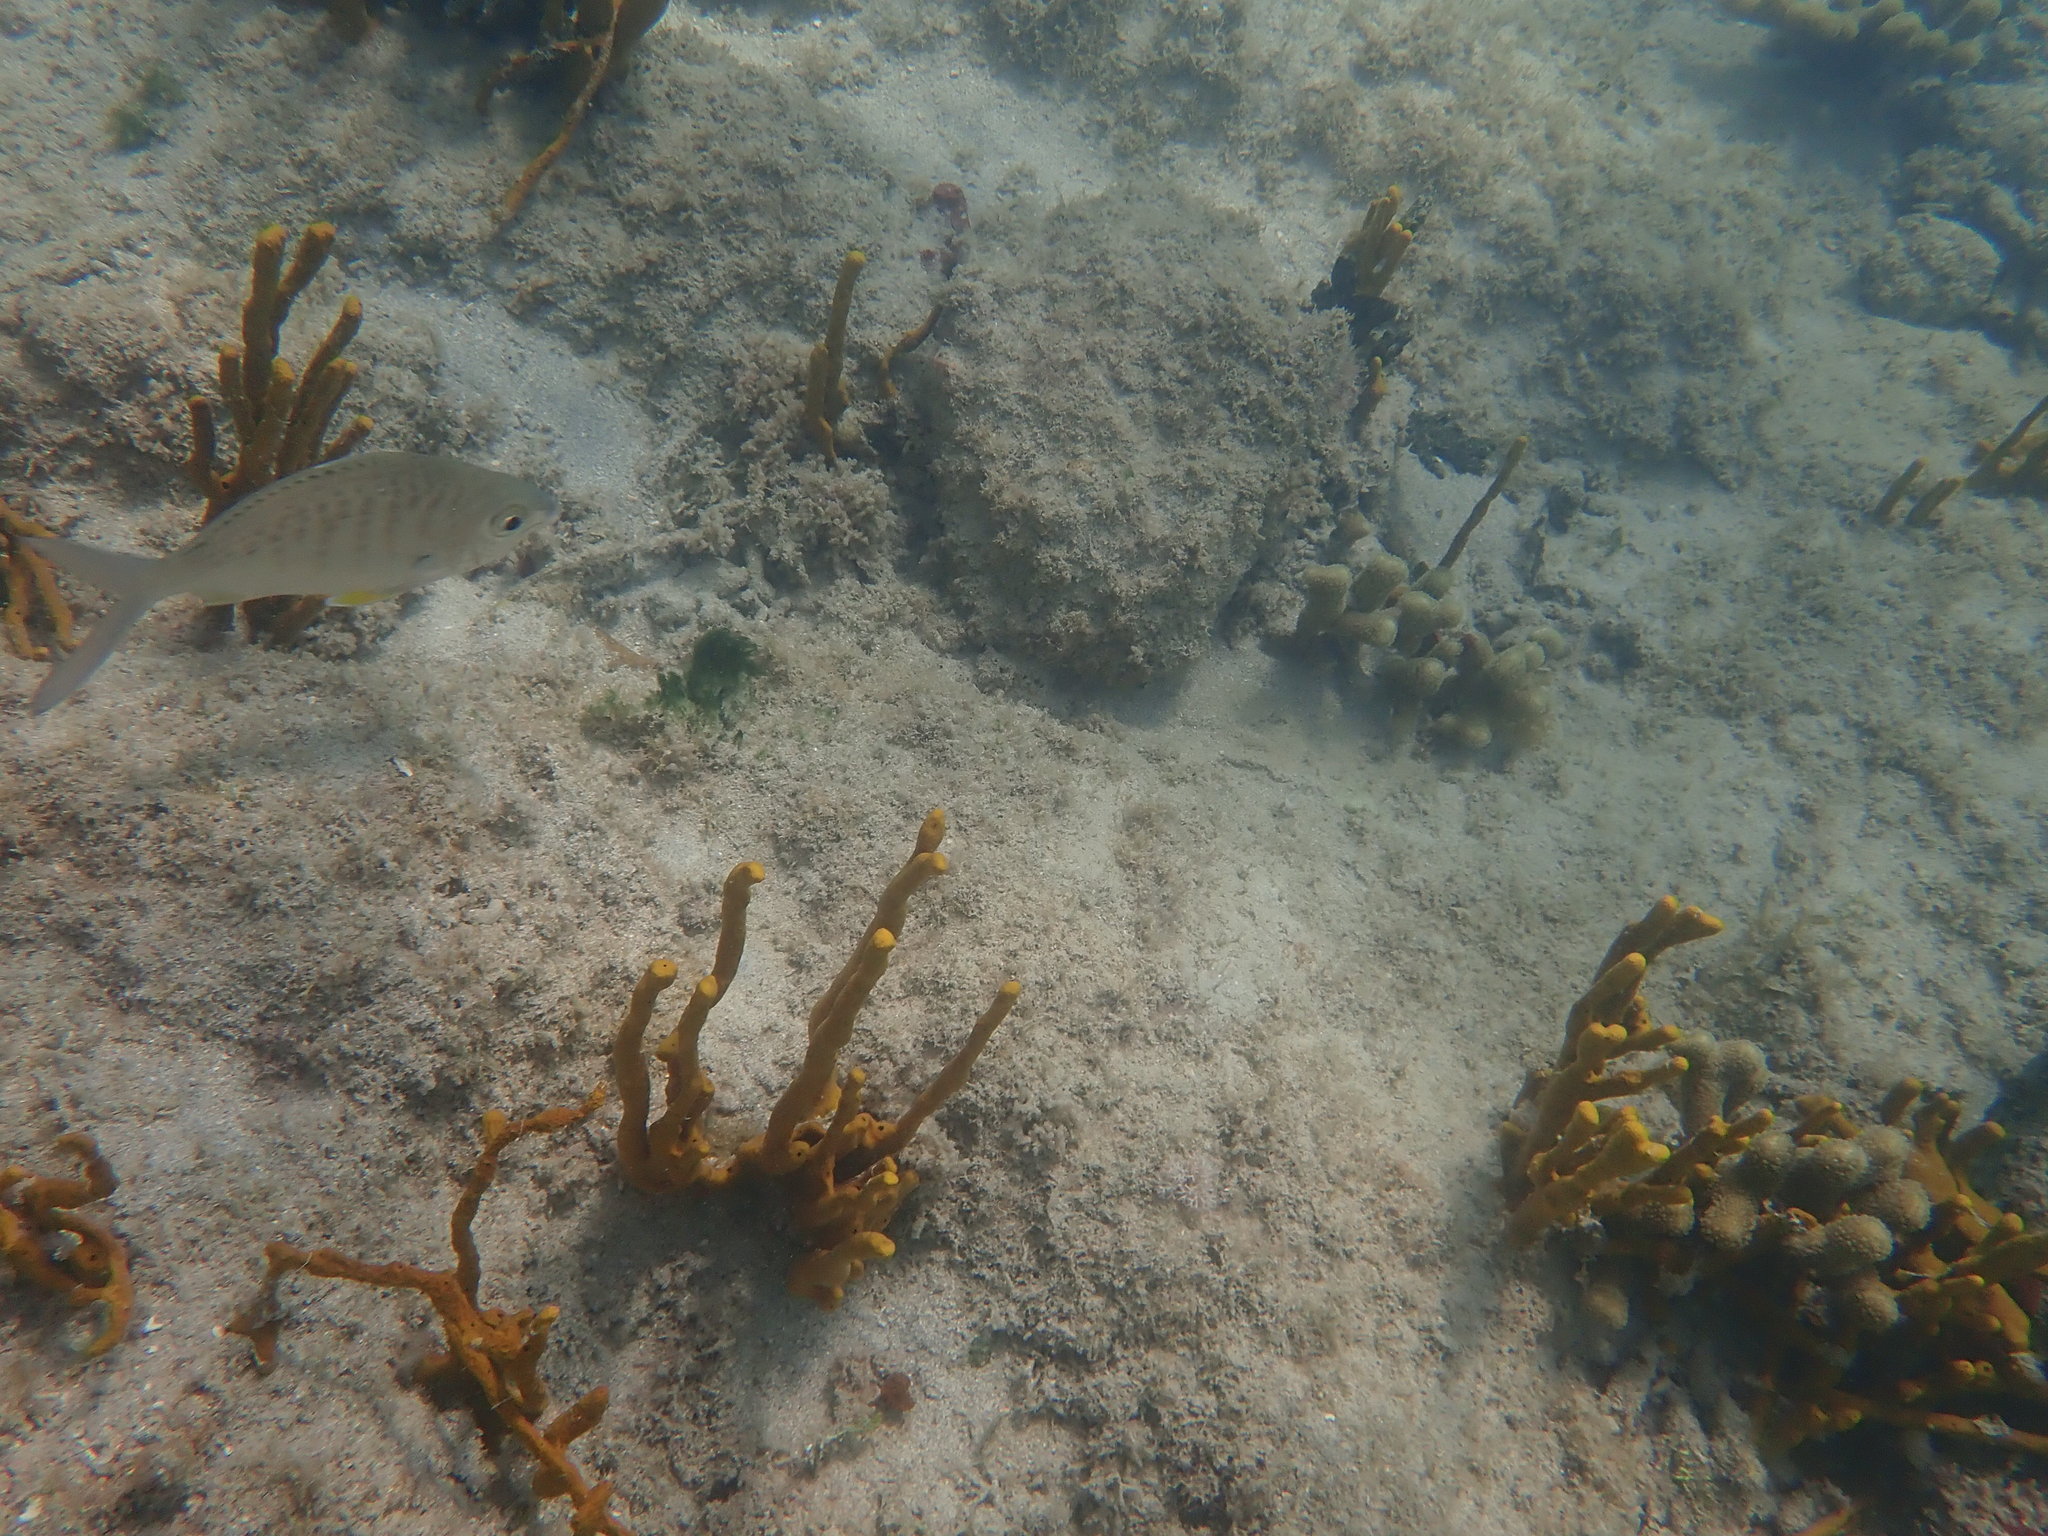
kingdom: Animalia
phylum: Chordata
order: Perciformes
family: Gerreidae
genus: Gerres
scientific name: Gerres cinereus
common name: Hedow
